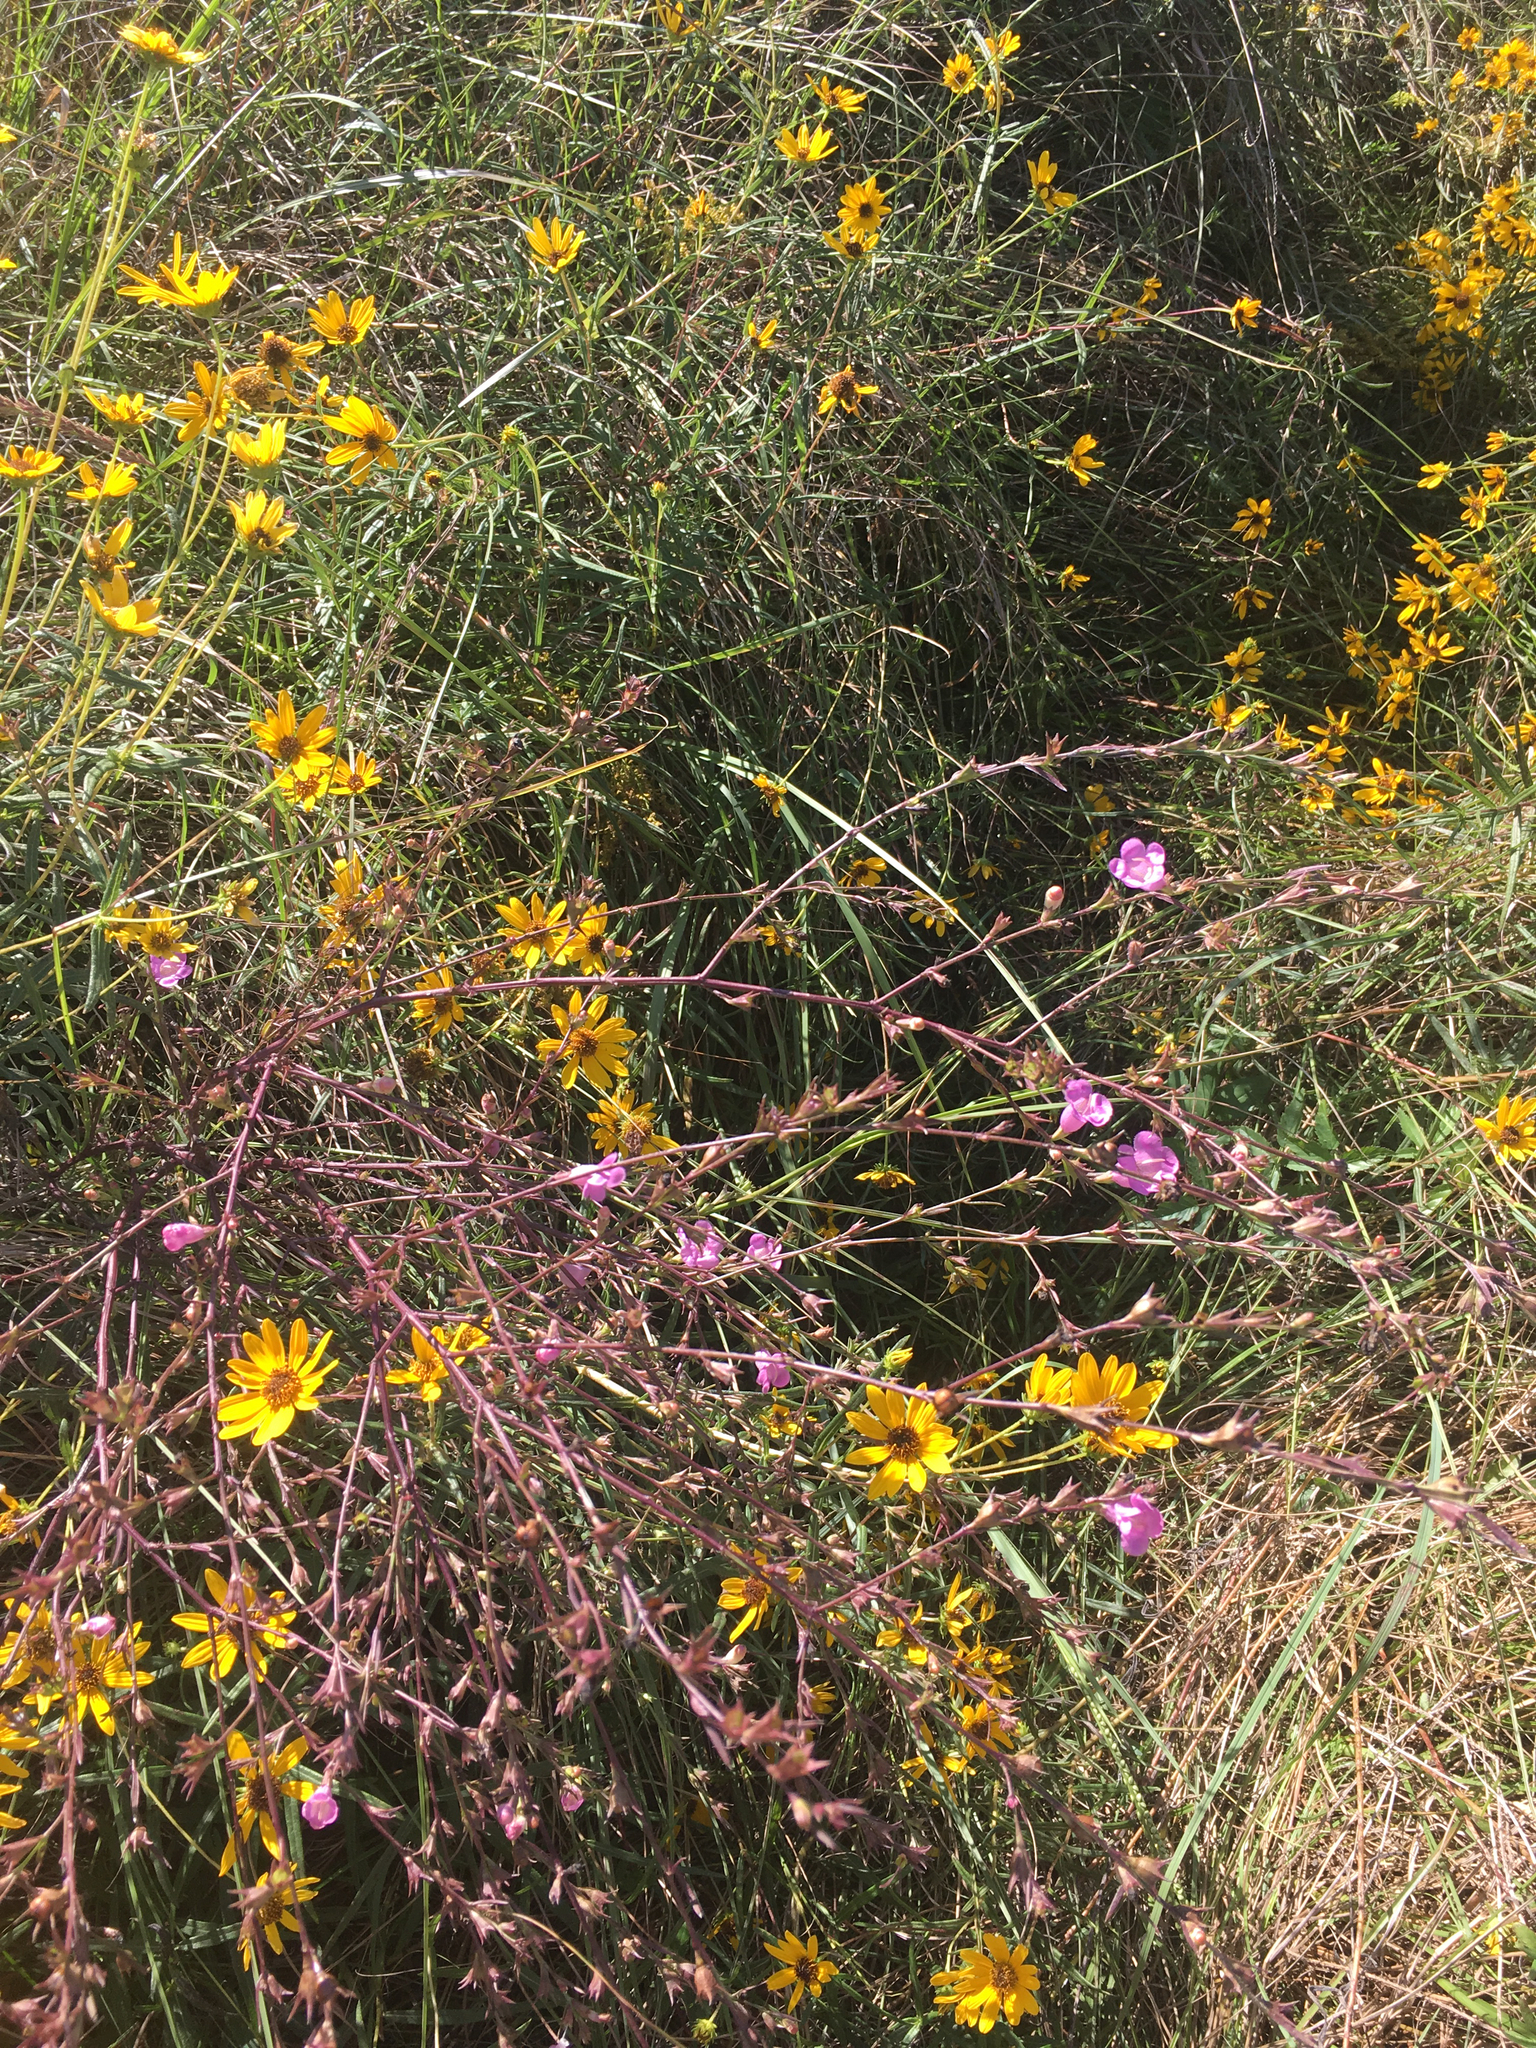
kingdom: Plantae
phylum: Tracheophyta
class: Magnoliopsida
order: Lamiales
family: Orobanchaceae
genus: Agalinis
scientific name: Agalinis heterophylla
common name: Prairie agalinis
